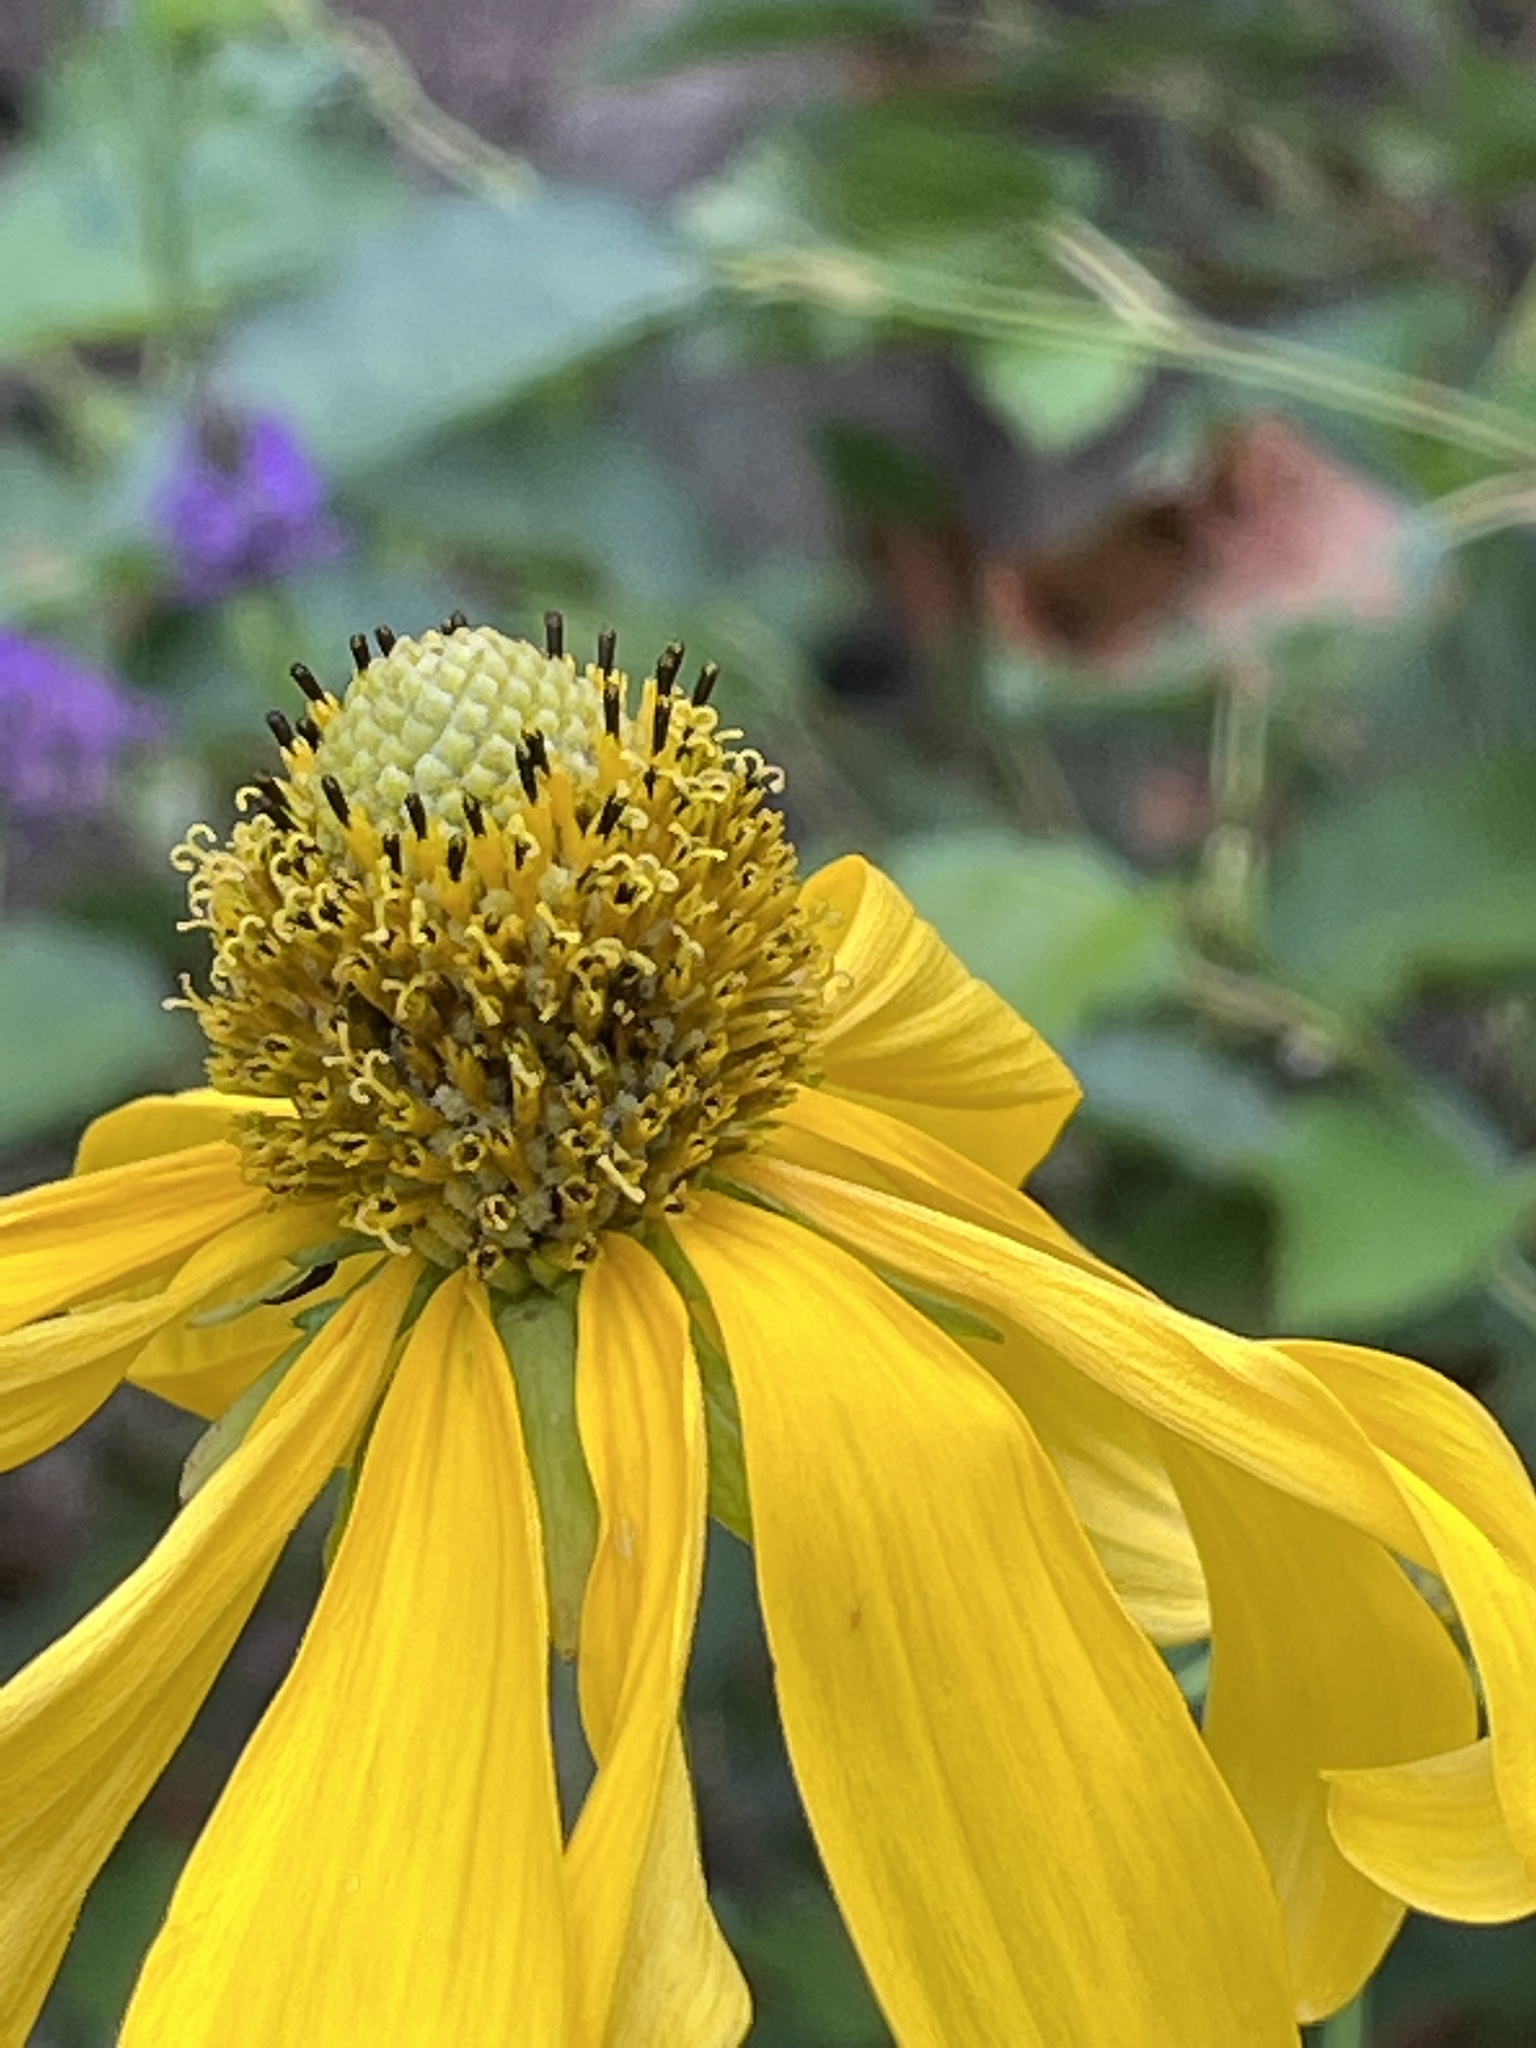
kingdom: Plantae
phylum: Tracheophyta
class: Magnoliopsida
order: Asterales
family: Asteraceae
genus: Rudbeckia
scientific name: Rudbeckia laciniata
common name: Coneflower
